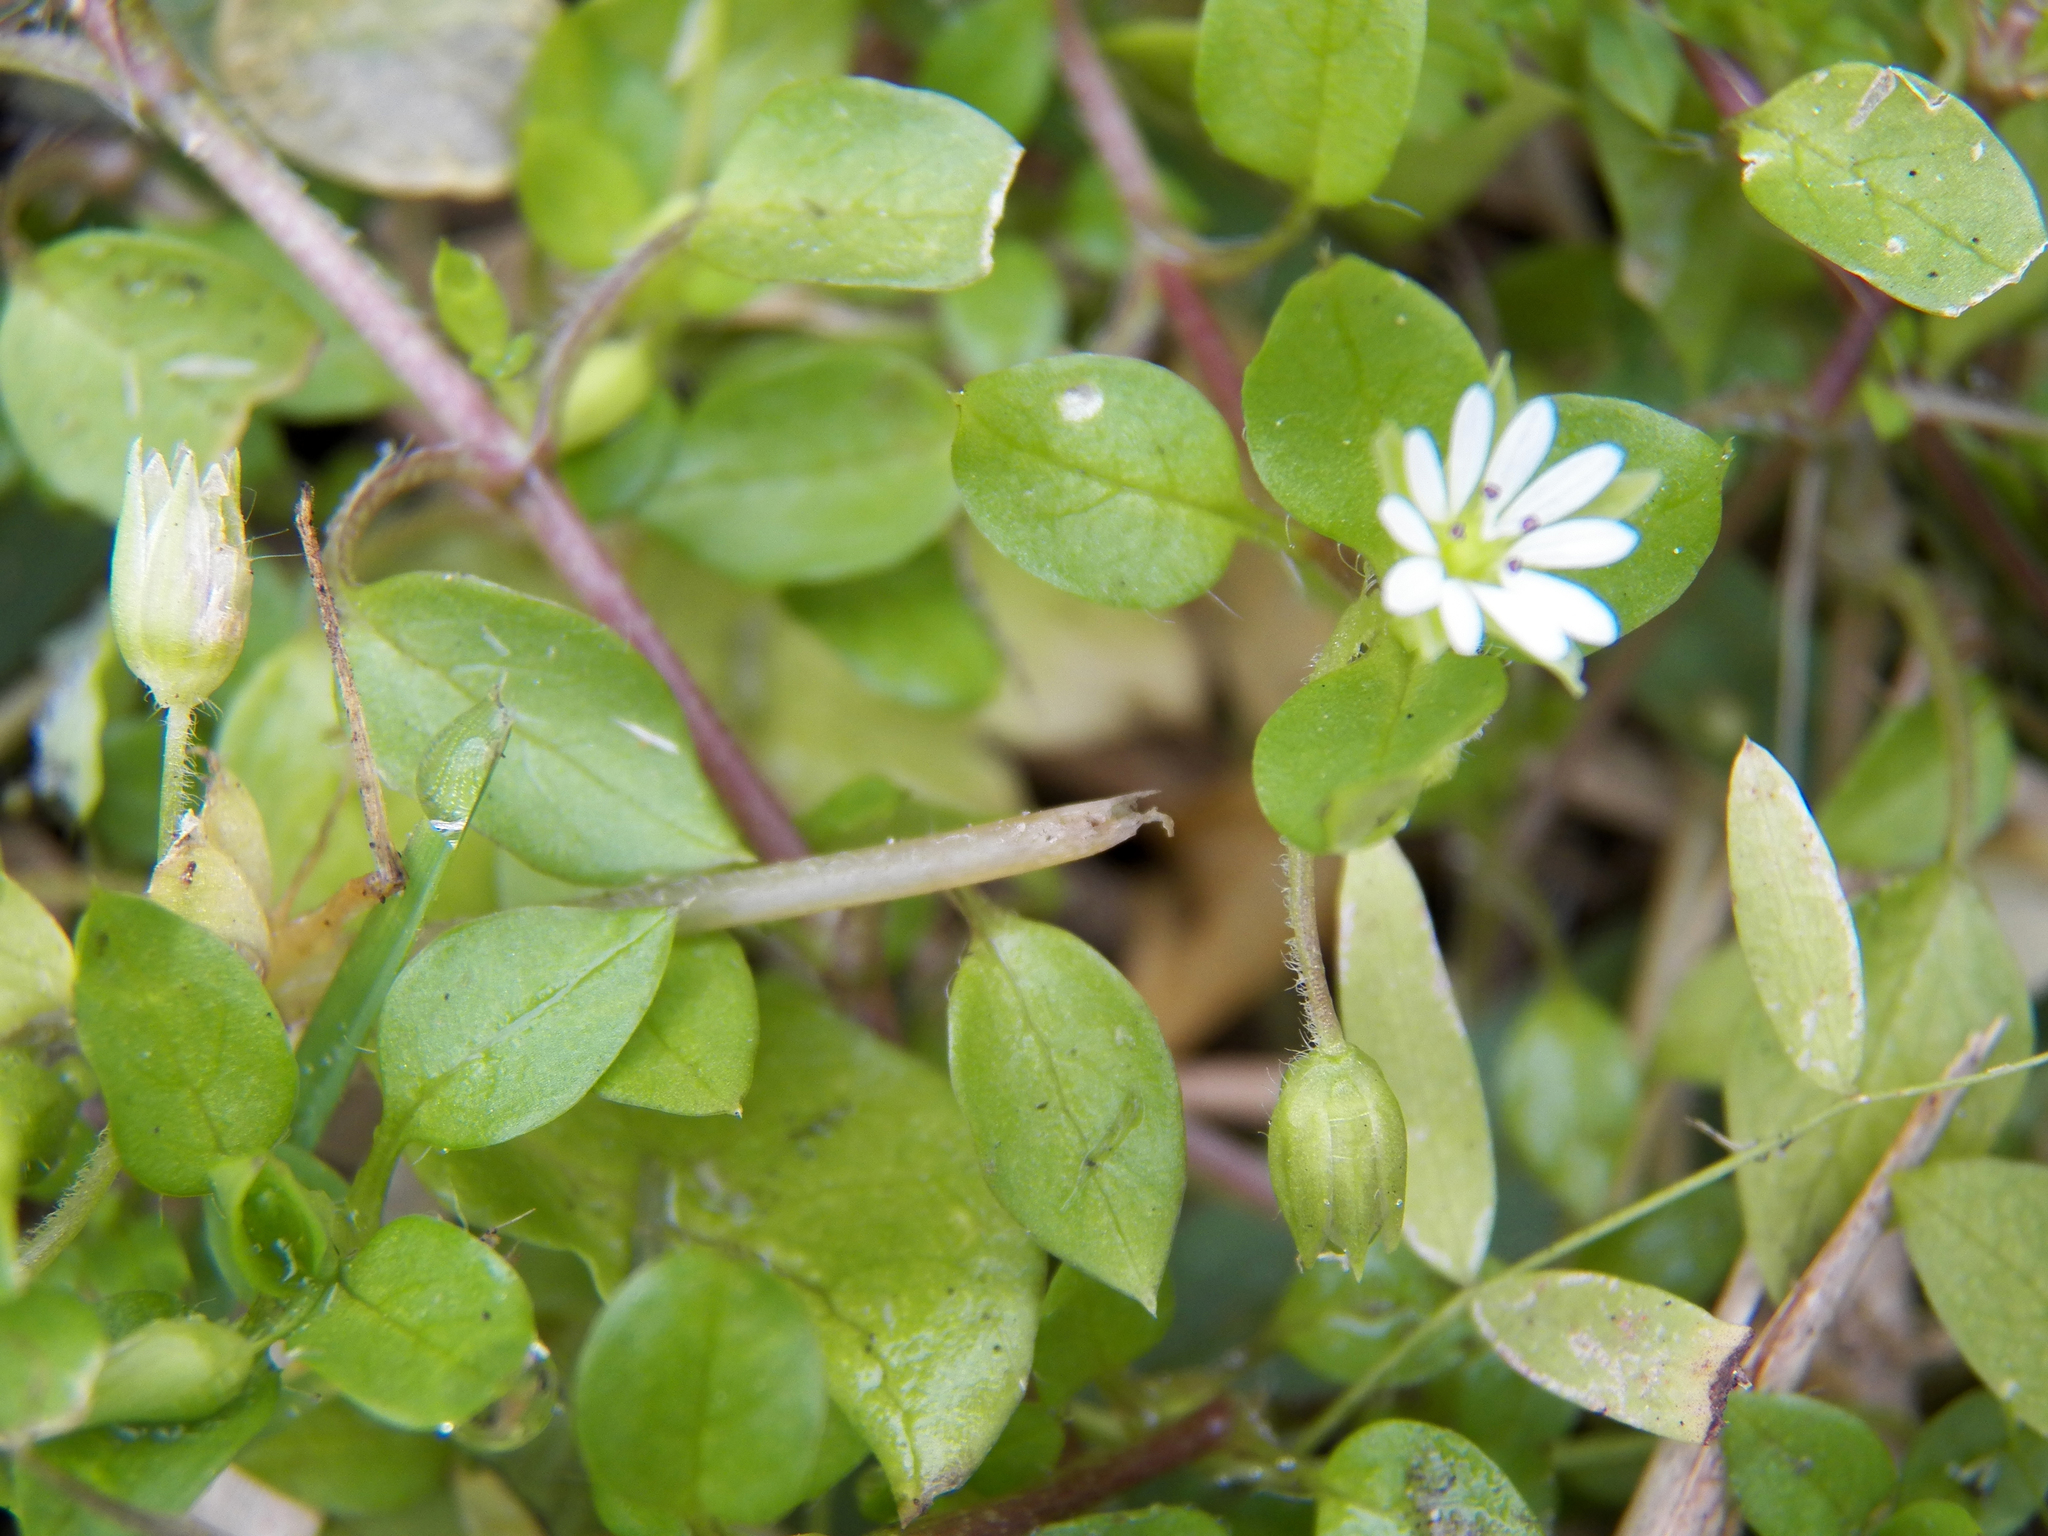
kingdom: Plantae
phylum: Tracheophyta
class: Magnoliopsida
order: Caryophyllales
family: Caryophyllaceae
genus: Stellaria
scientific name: Stellaria media
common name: Common chickweed
